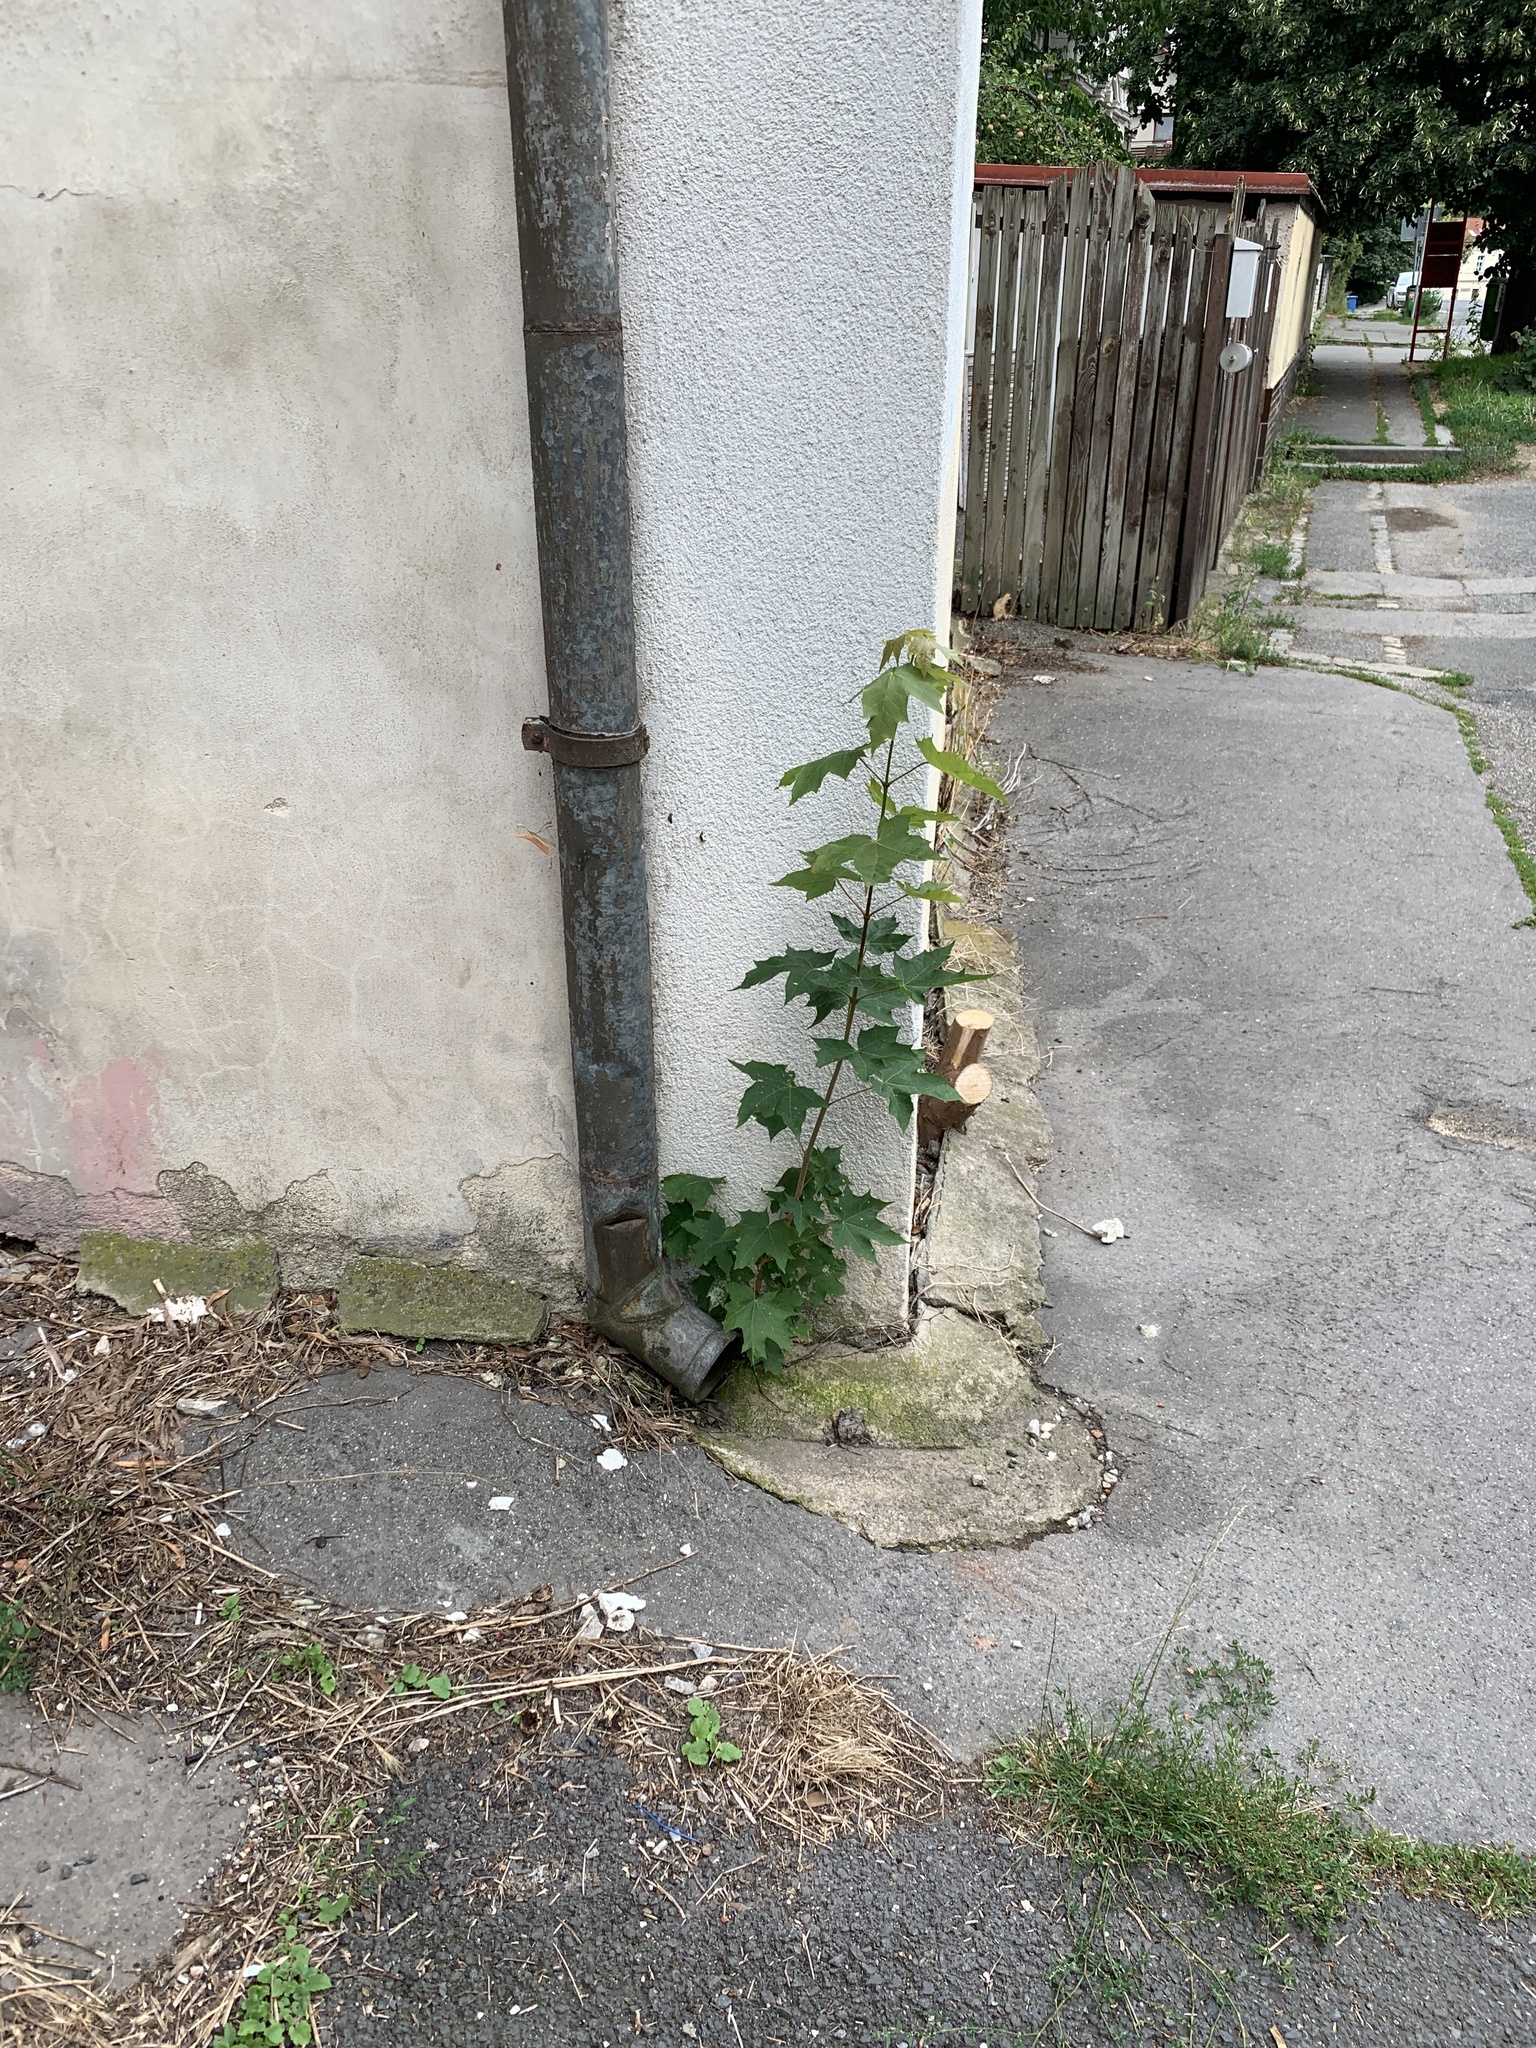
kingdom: Plantae
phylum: Tracheophyta
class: Magnoliopsida
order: Sapindales
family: Sapindaceae
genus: Acer
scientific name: Acer platanoides
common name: Norway maple
